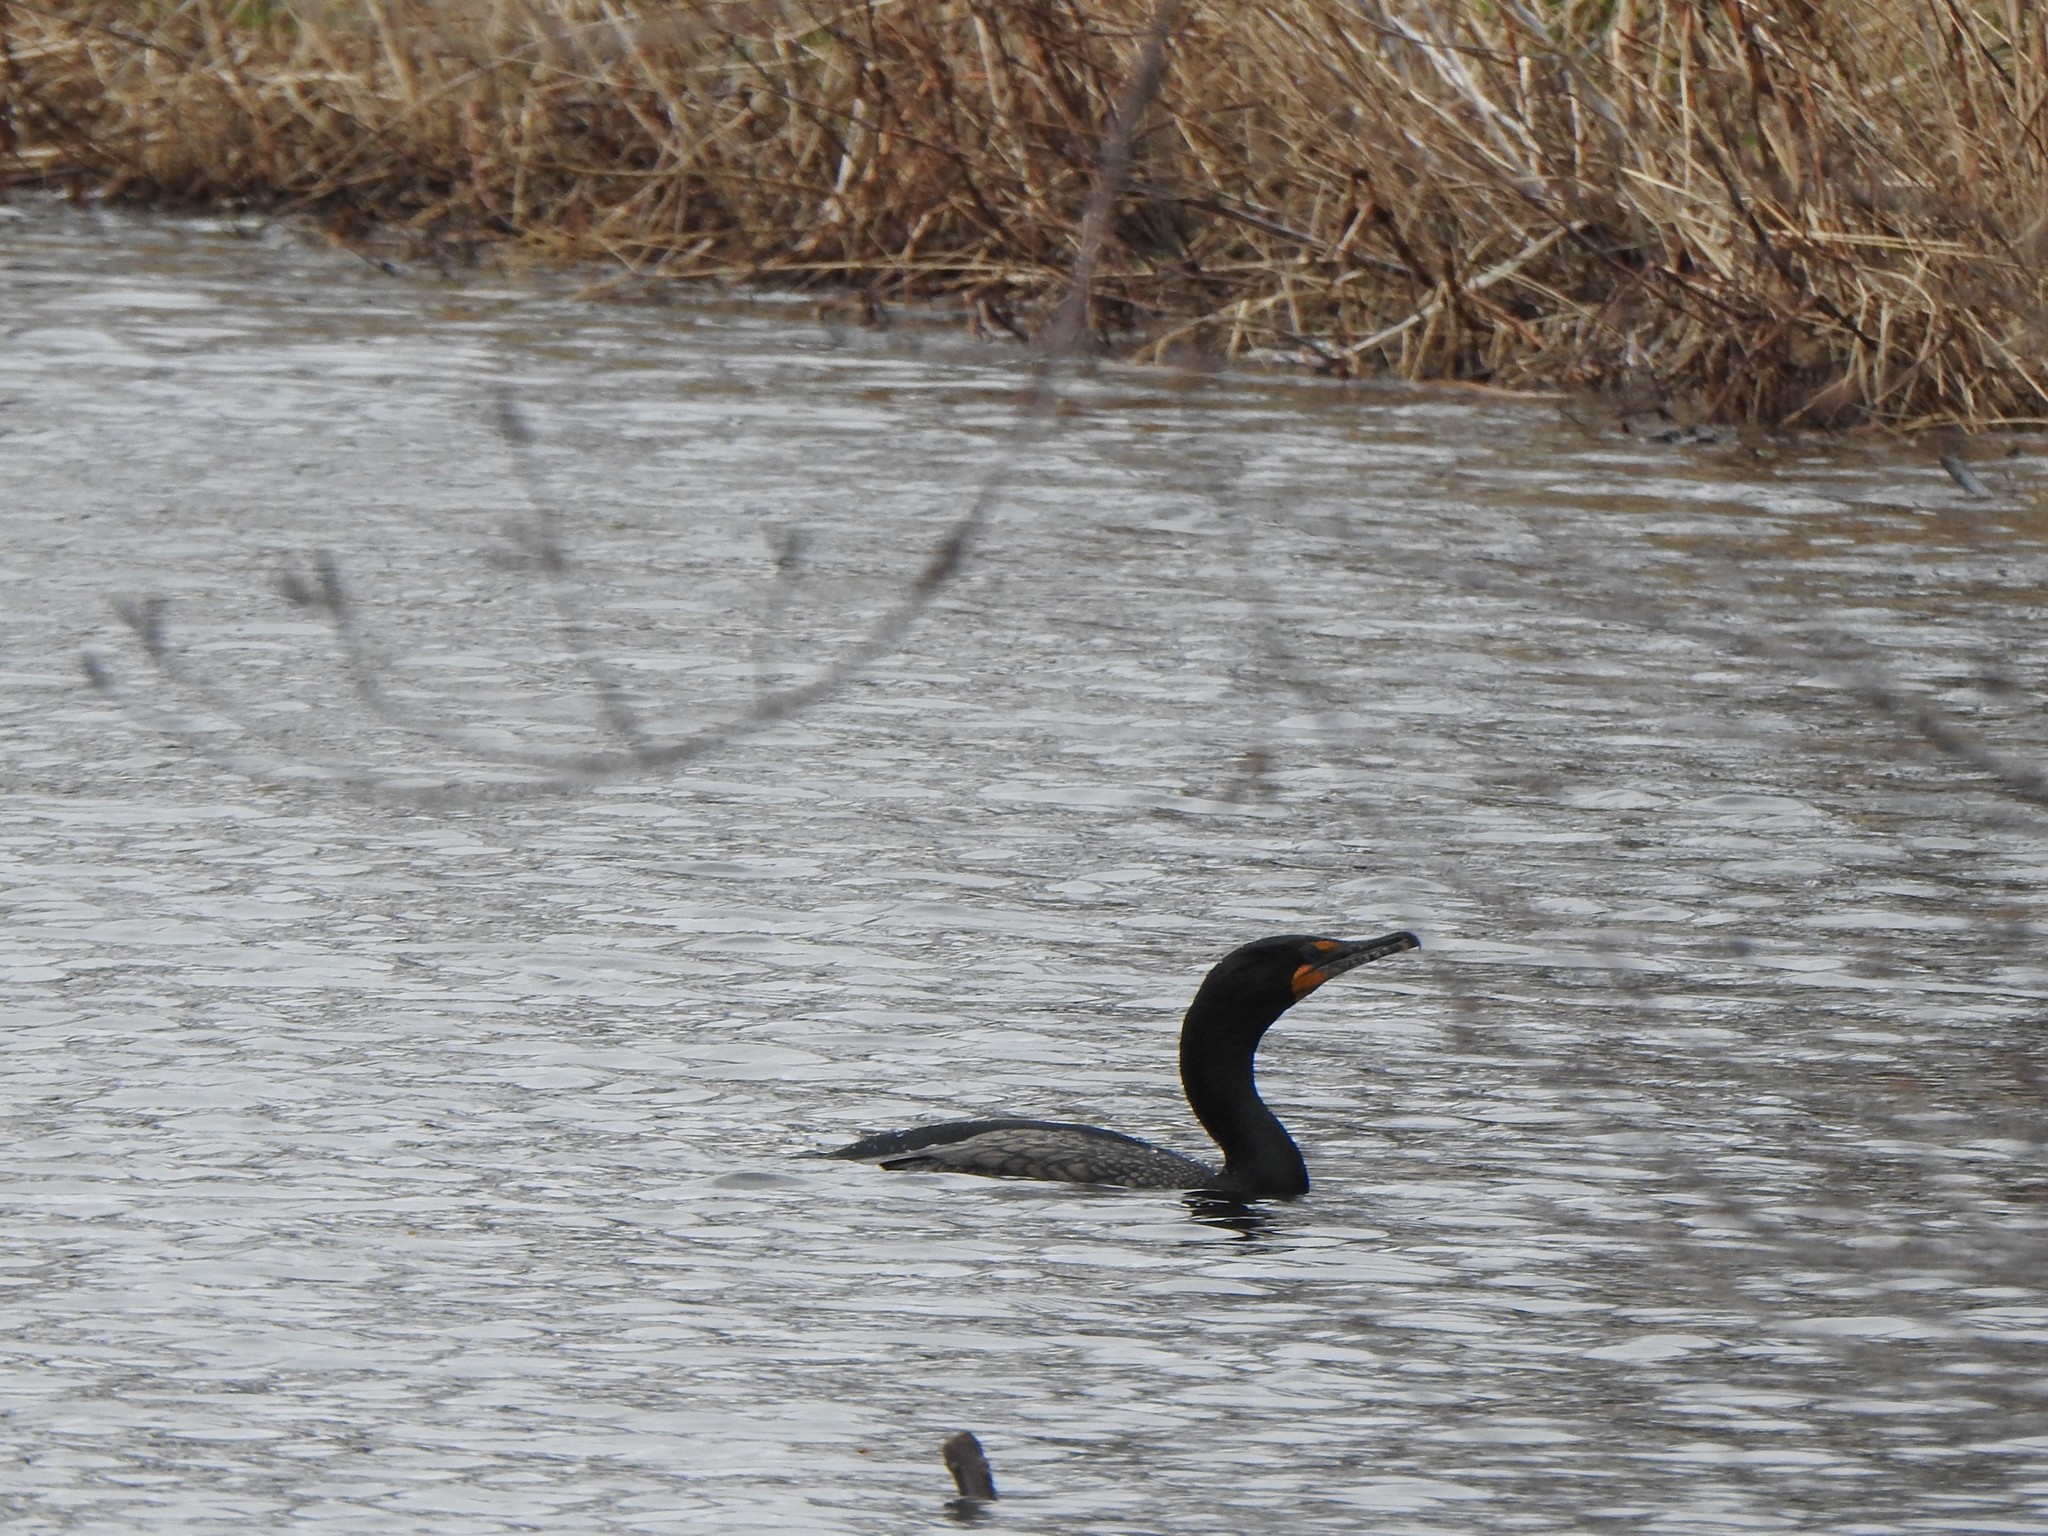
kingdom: Animalia
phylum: Chordata
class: Aves
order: Suliformes
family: Phalacrocoracidae
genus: Phalacrocorax
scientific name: Phalacrocorax auritus
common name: Double-crested cormorant
